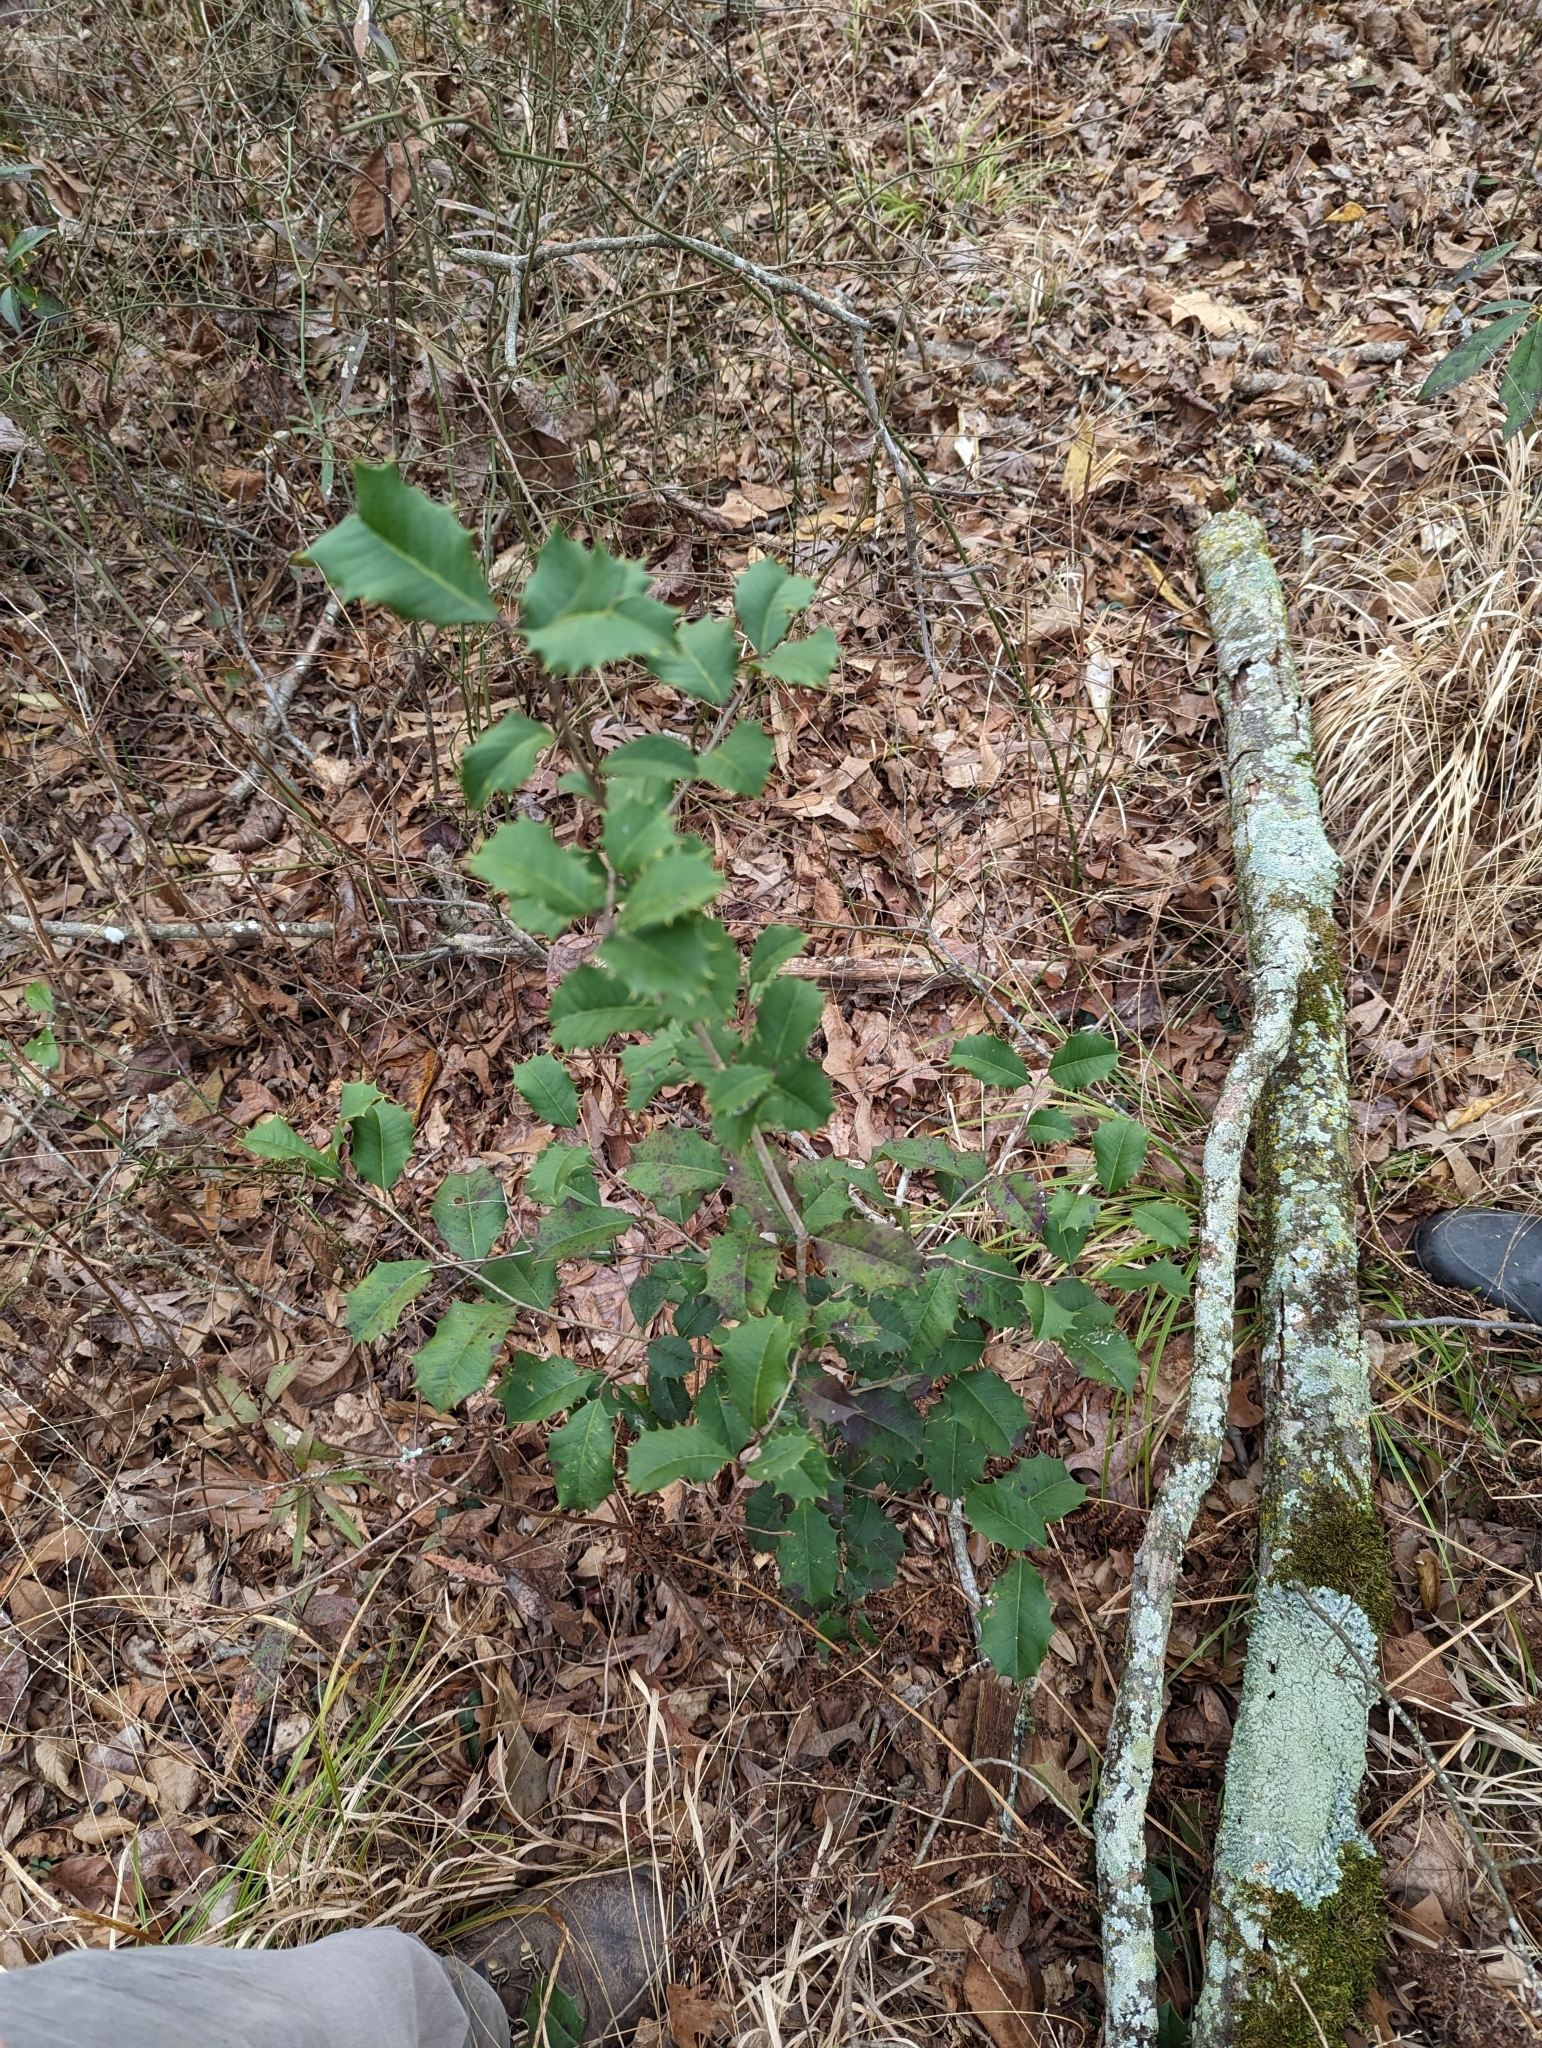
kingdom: Plantae
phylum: Tracheophyta
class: Magnoliopsida
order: Aquifoliales
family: Aquifoliaceae
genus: Ilex
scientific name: Ilex opaca
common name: American holly
